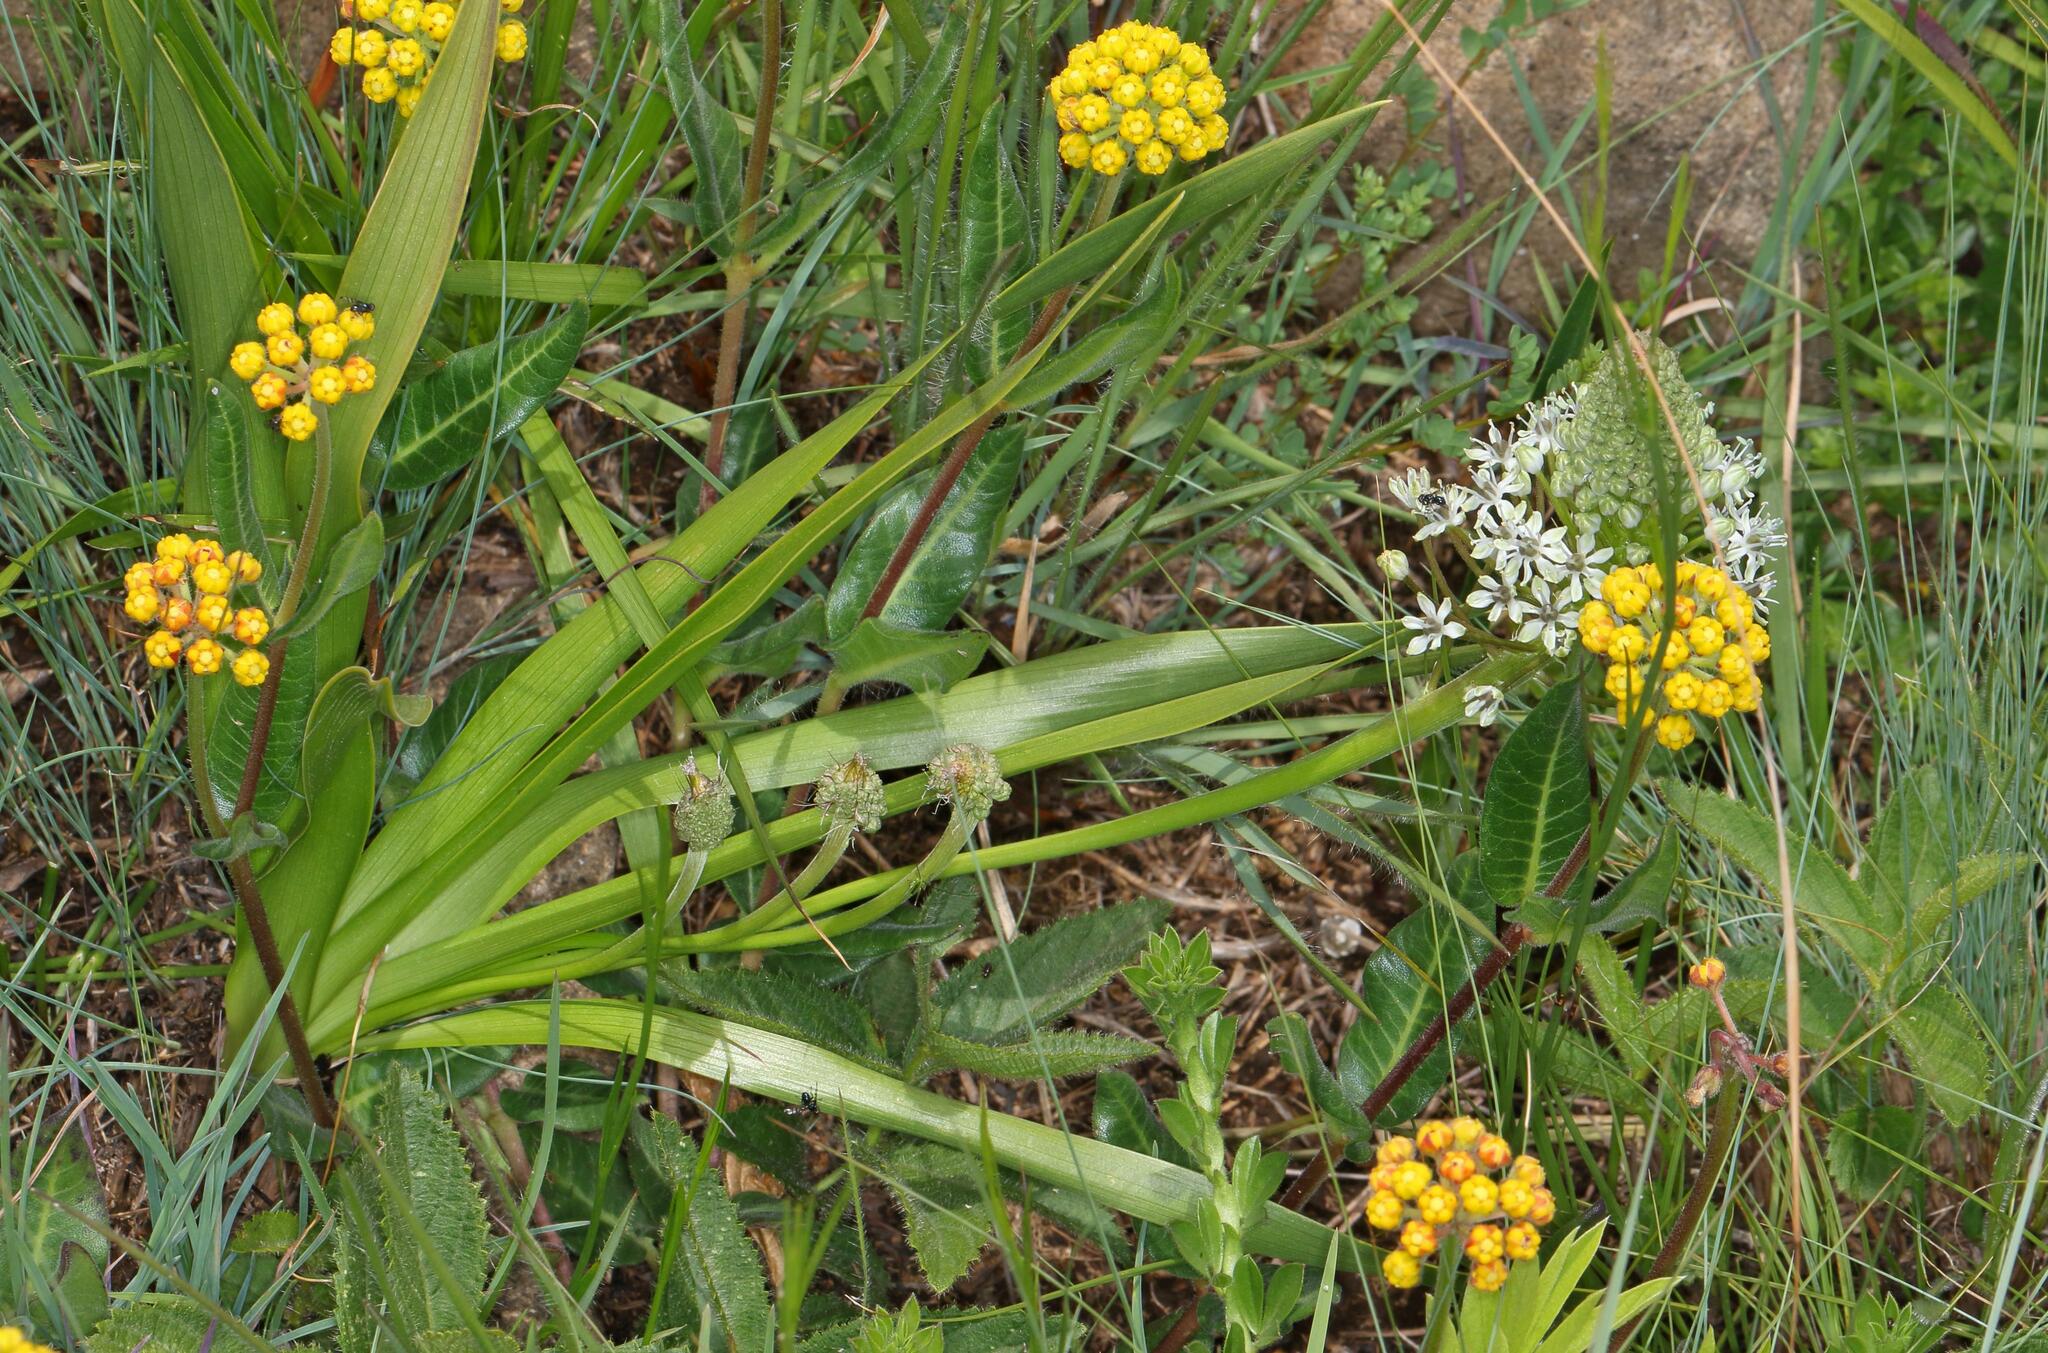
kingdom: Plantae
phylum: Tracheophyta
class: Liliopsida
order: Asparagales
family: Asparagaceae
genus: Schizocarphus
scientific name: Schizocarphus nervosus
